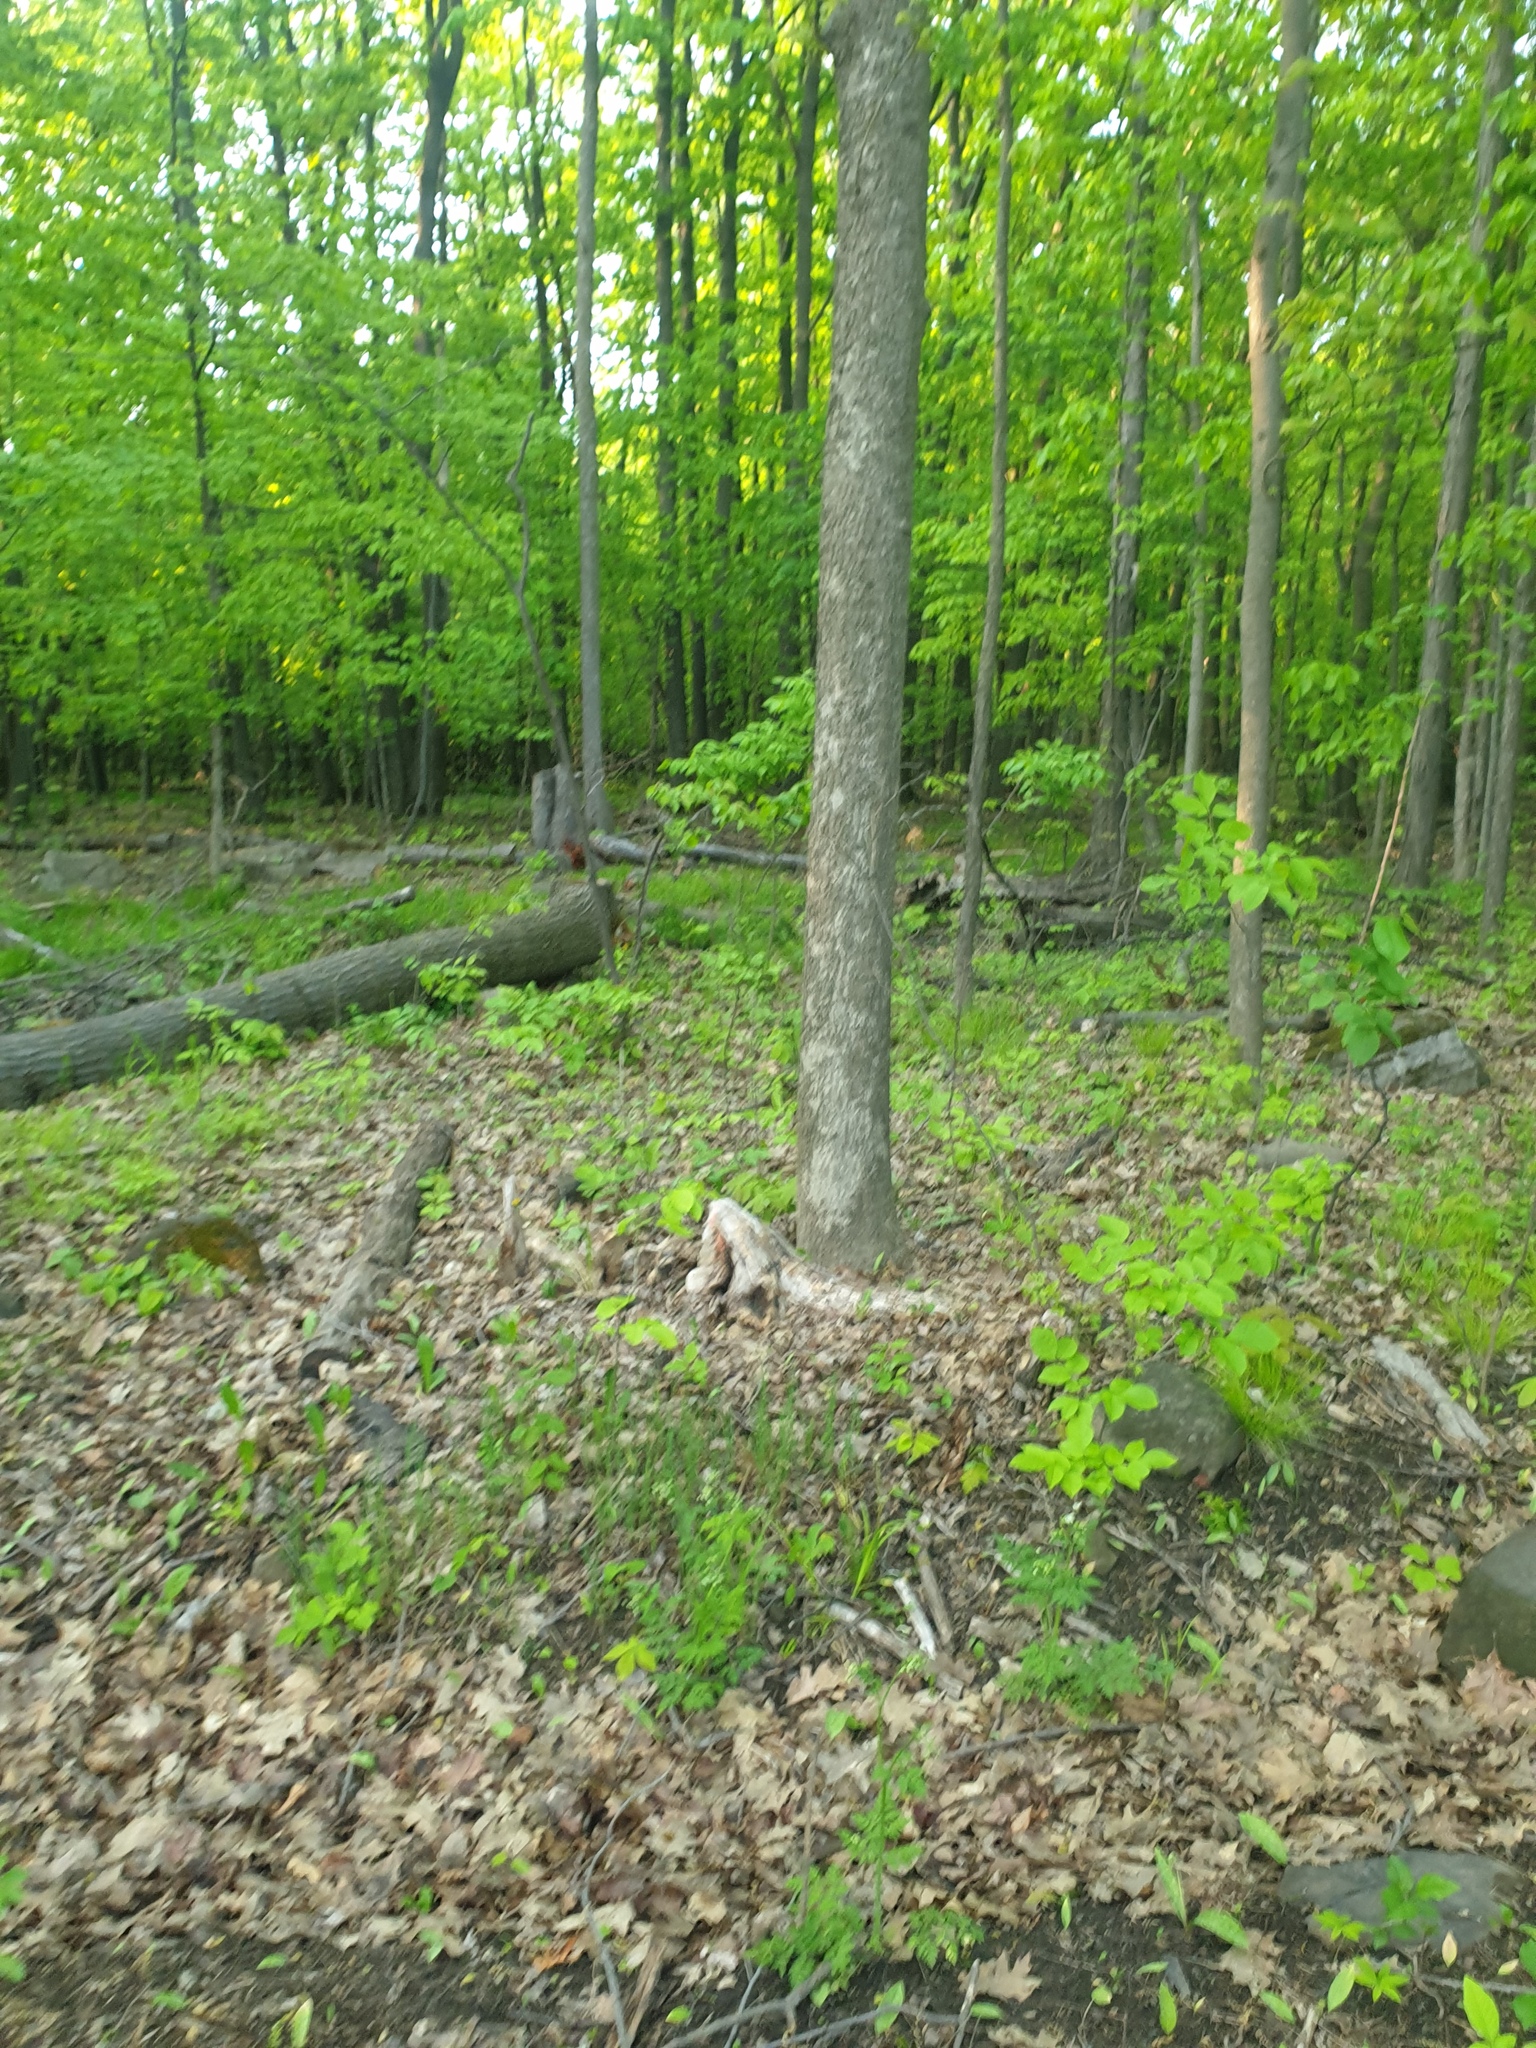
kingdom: Plantae
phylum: Tracheophyta
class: Magnoliopsida
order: Brassicales
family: Brassicaceae
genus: Alliaria
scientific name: Alliaria petiolata
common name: Garlic mustard
